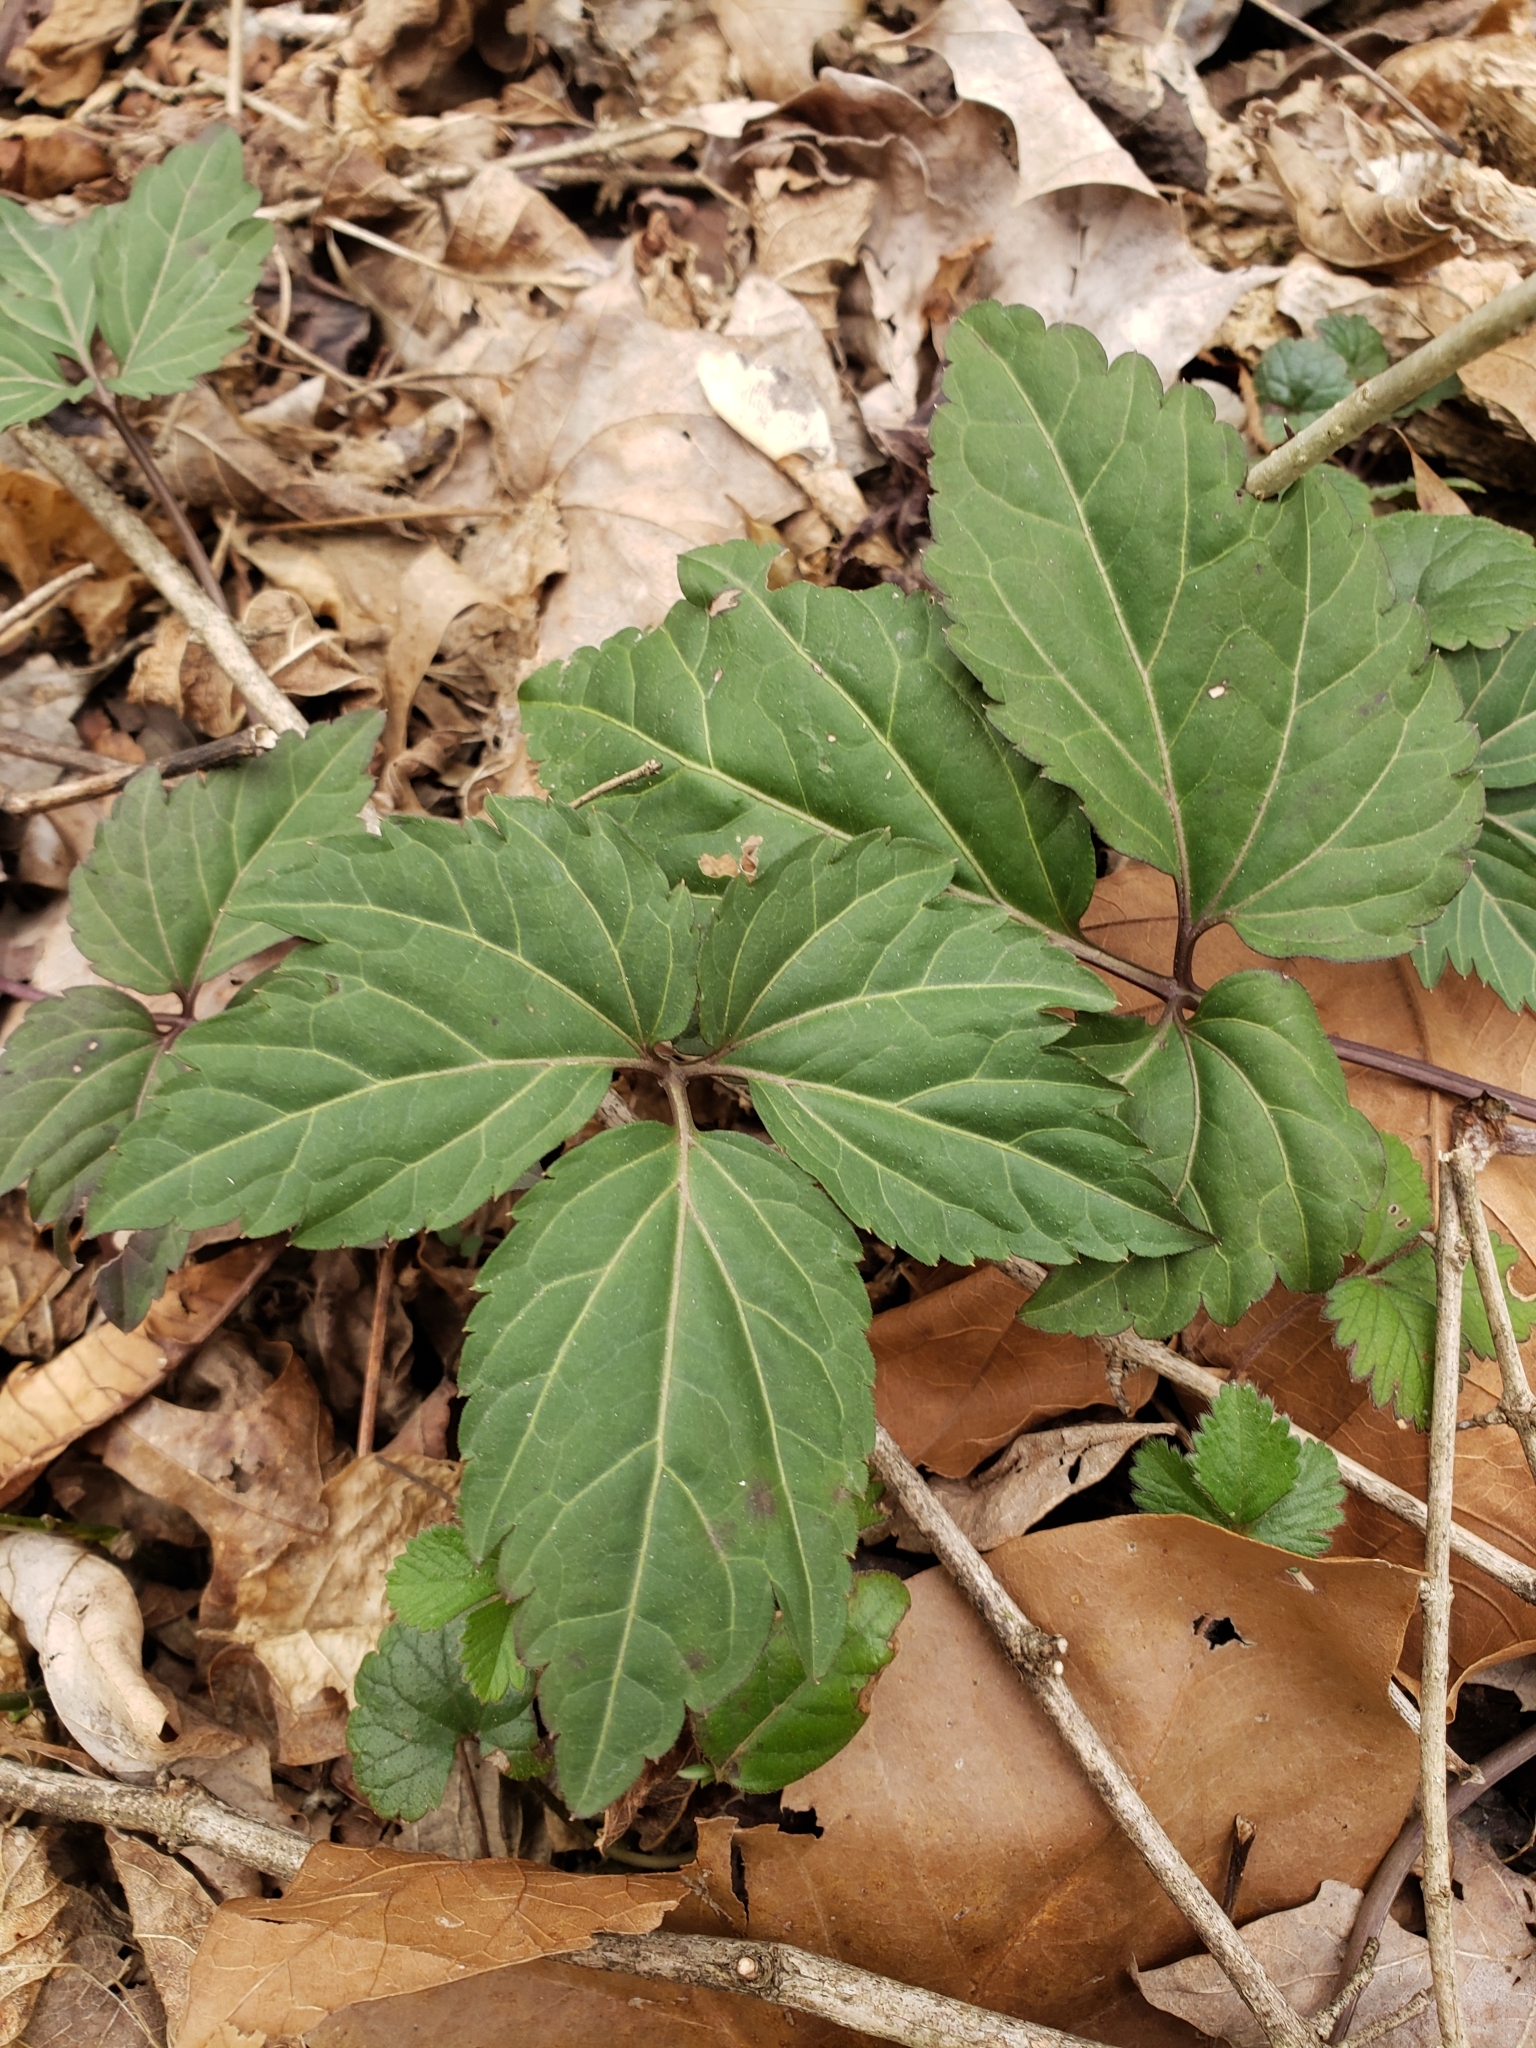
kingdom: Plantae
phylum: Tracheophyta
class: Magnoliopsida
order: Brassicales
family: Brassicaceae
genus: Cardamine
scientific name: Cardamine diphylla
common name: Broad-leaved toothwort
